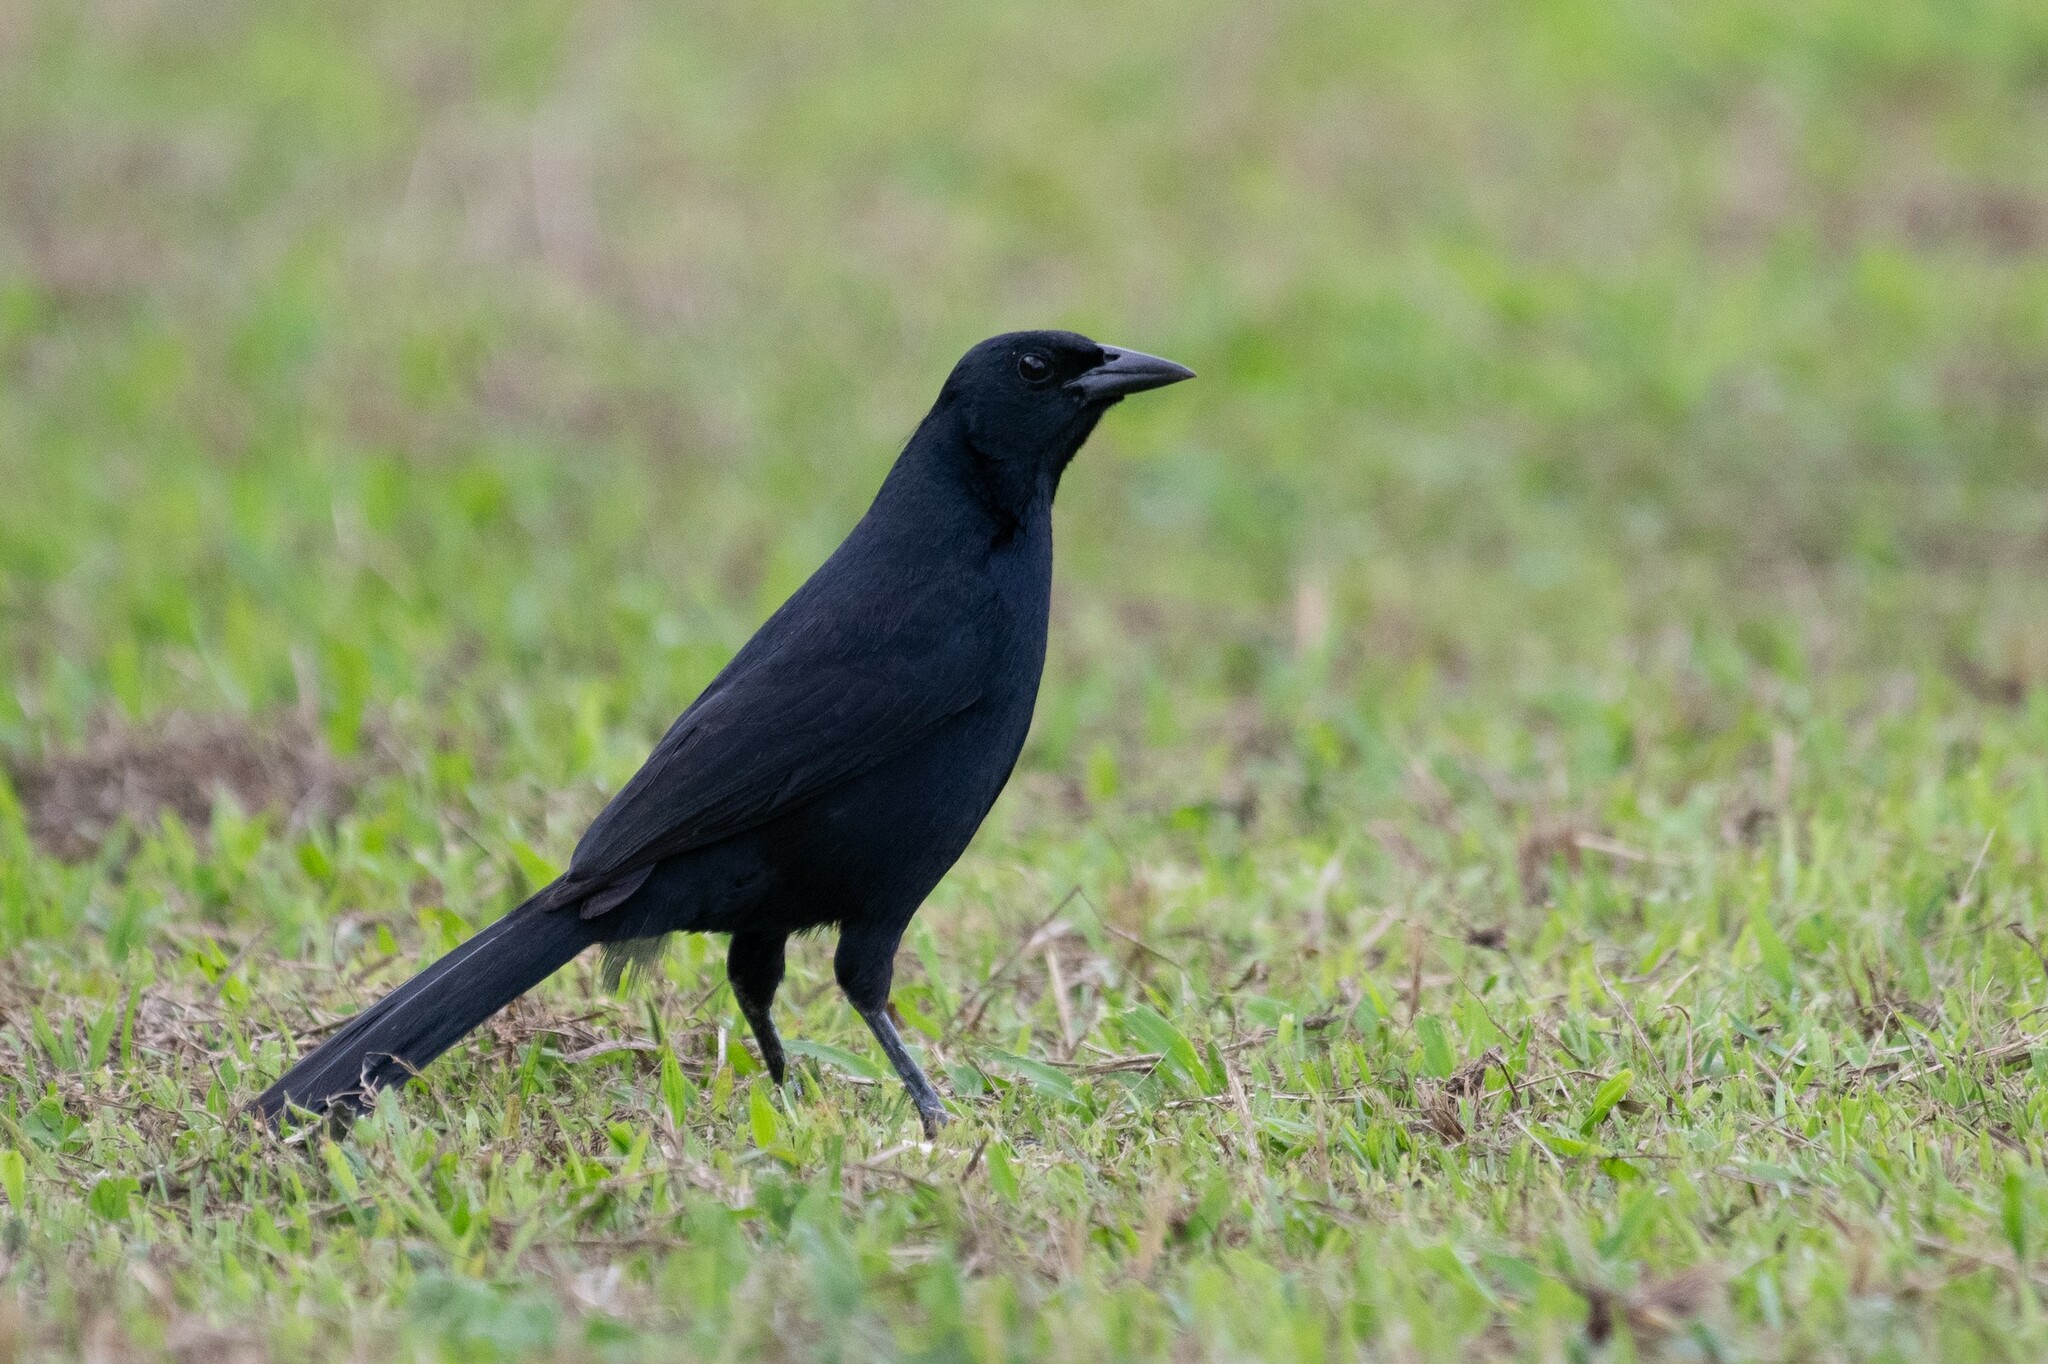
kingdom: Animalia
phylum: Chordata
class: Aves
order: Passeriformes
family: Icteridae
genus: Dives
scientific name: Dives dives
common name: Melodious blackbird
